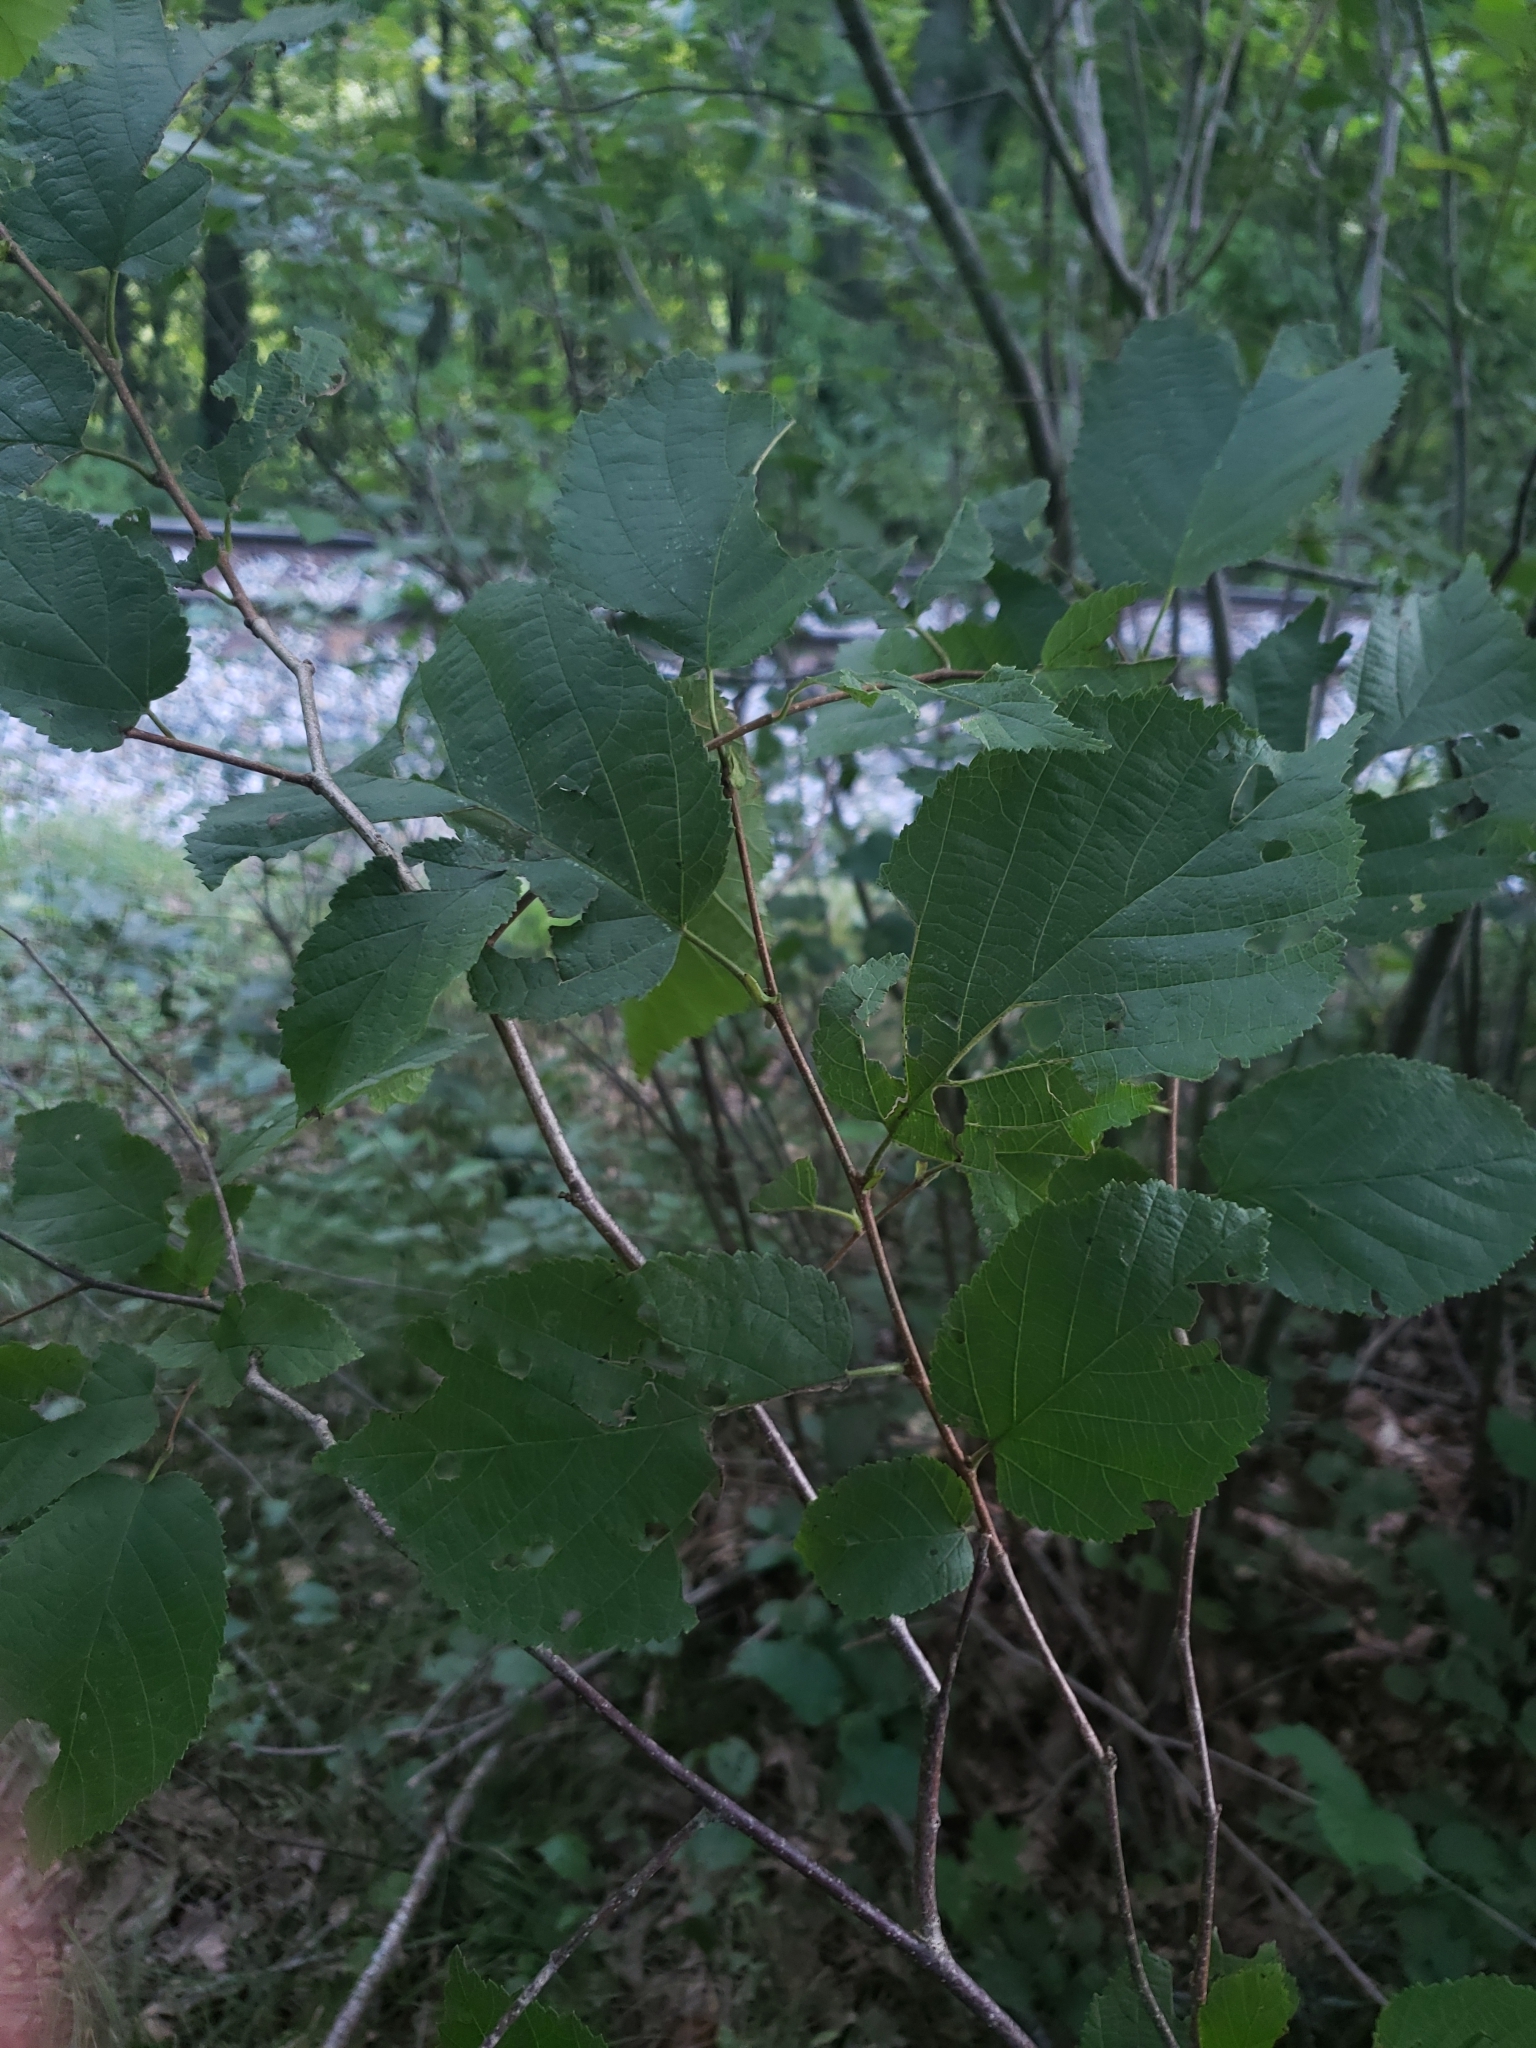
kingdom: Plantae
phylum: Tracheophyta
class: Magnoliopsida
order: Fagales
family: Betulaceae
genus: Corylus
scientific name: Corylus americana
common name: American hazel
